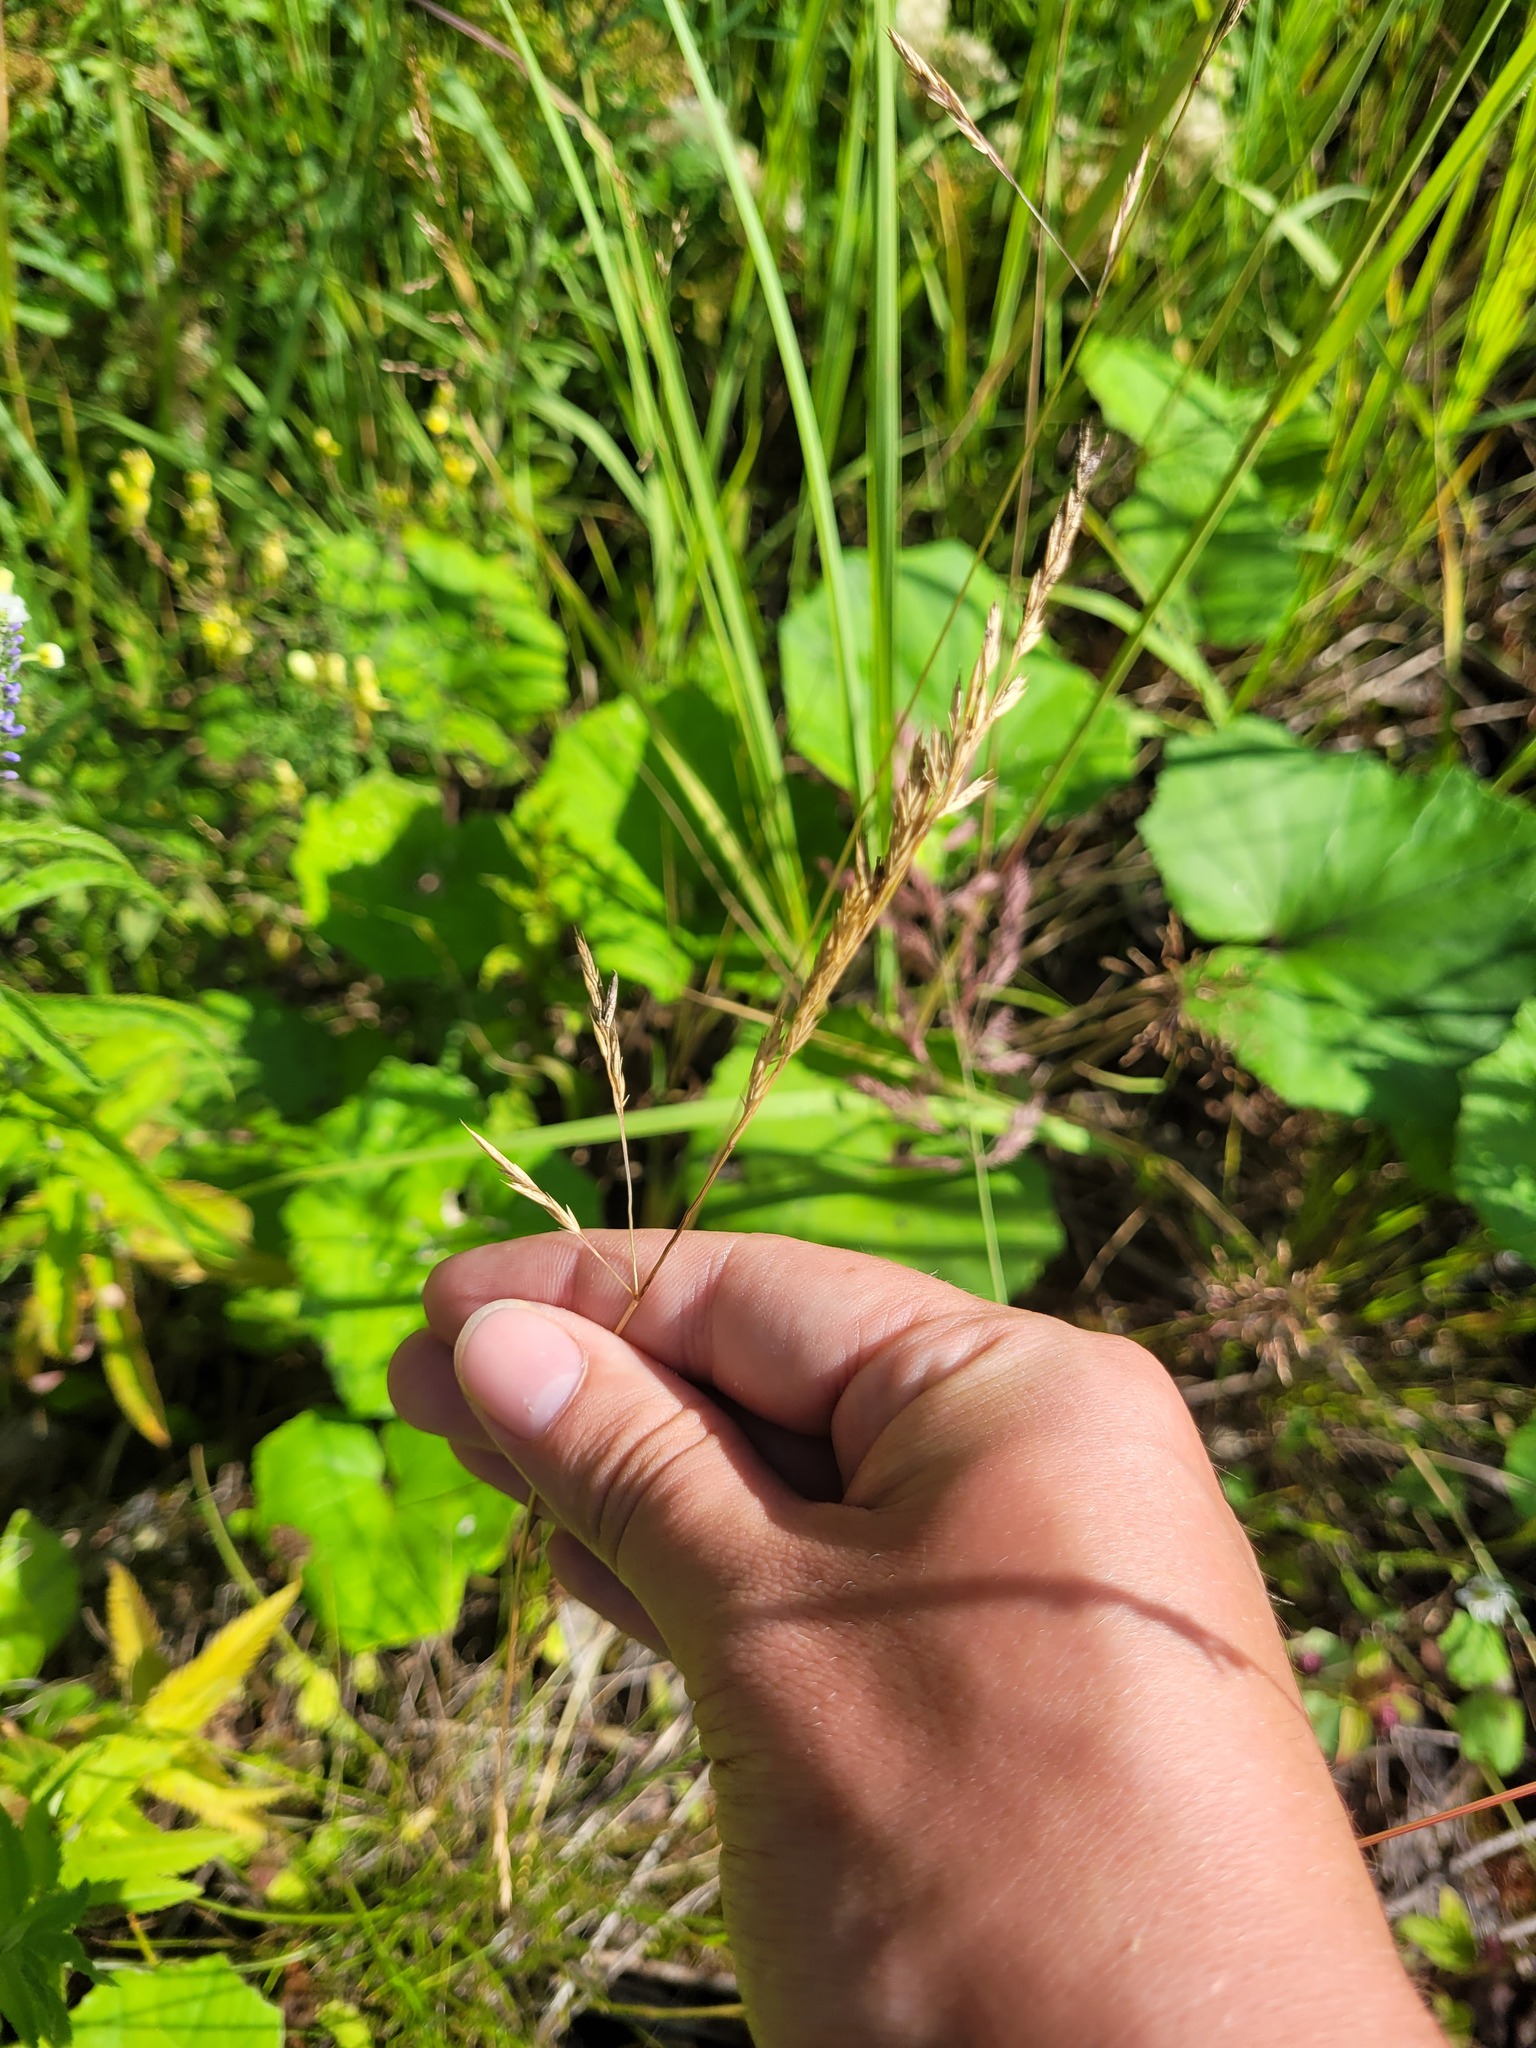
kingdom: Plantae
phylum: Tracheophyta
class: Liliopsida
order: Poales
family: Poaceae
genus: Festuca
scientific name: Festuca rubra
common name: Red fescue
